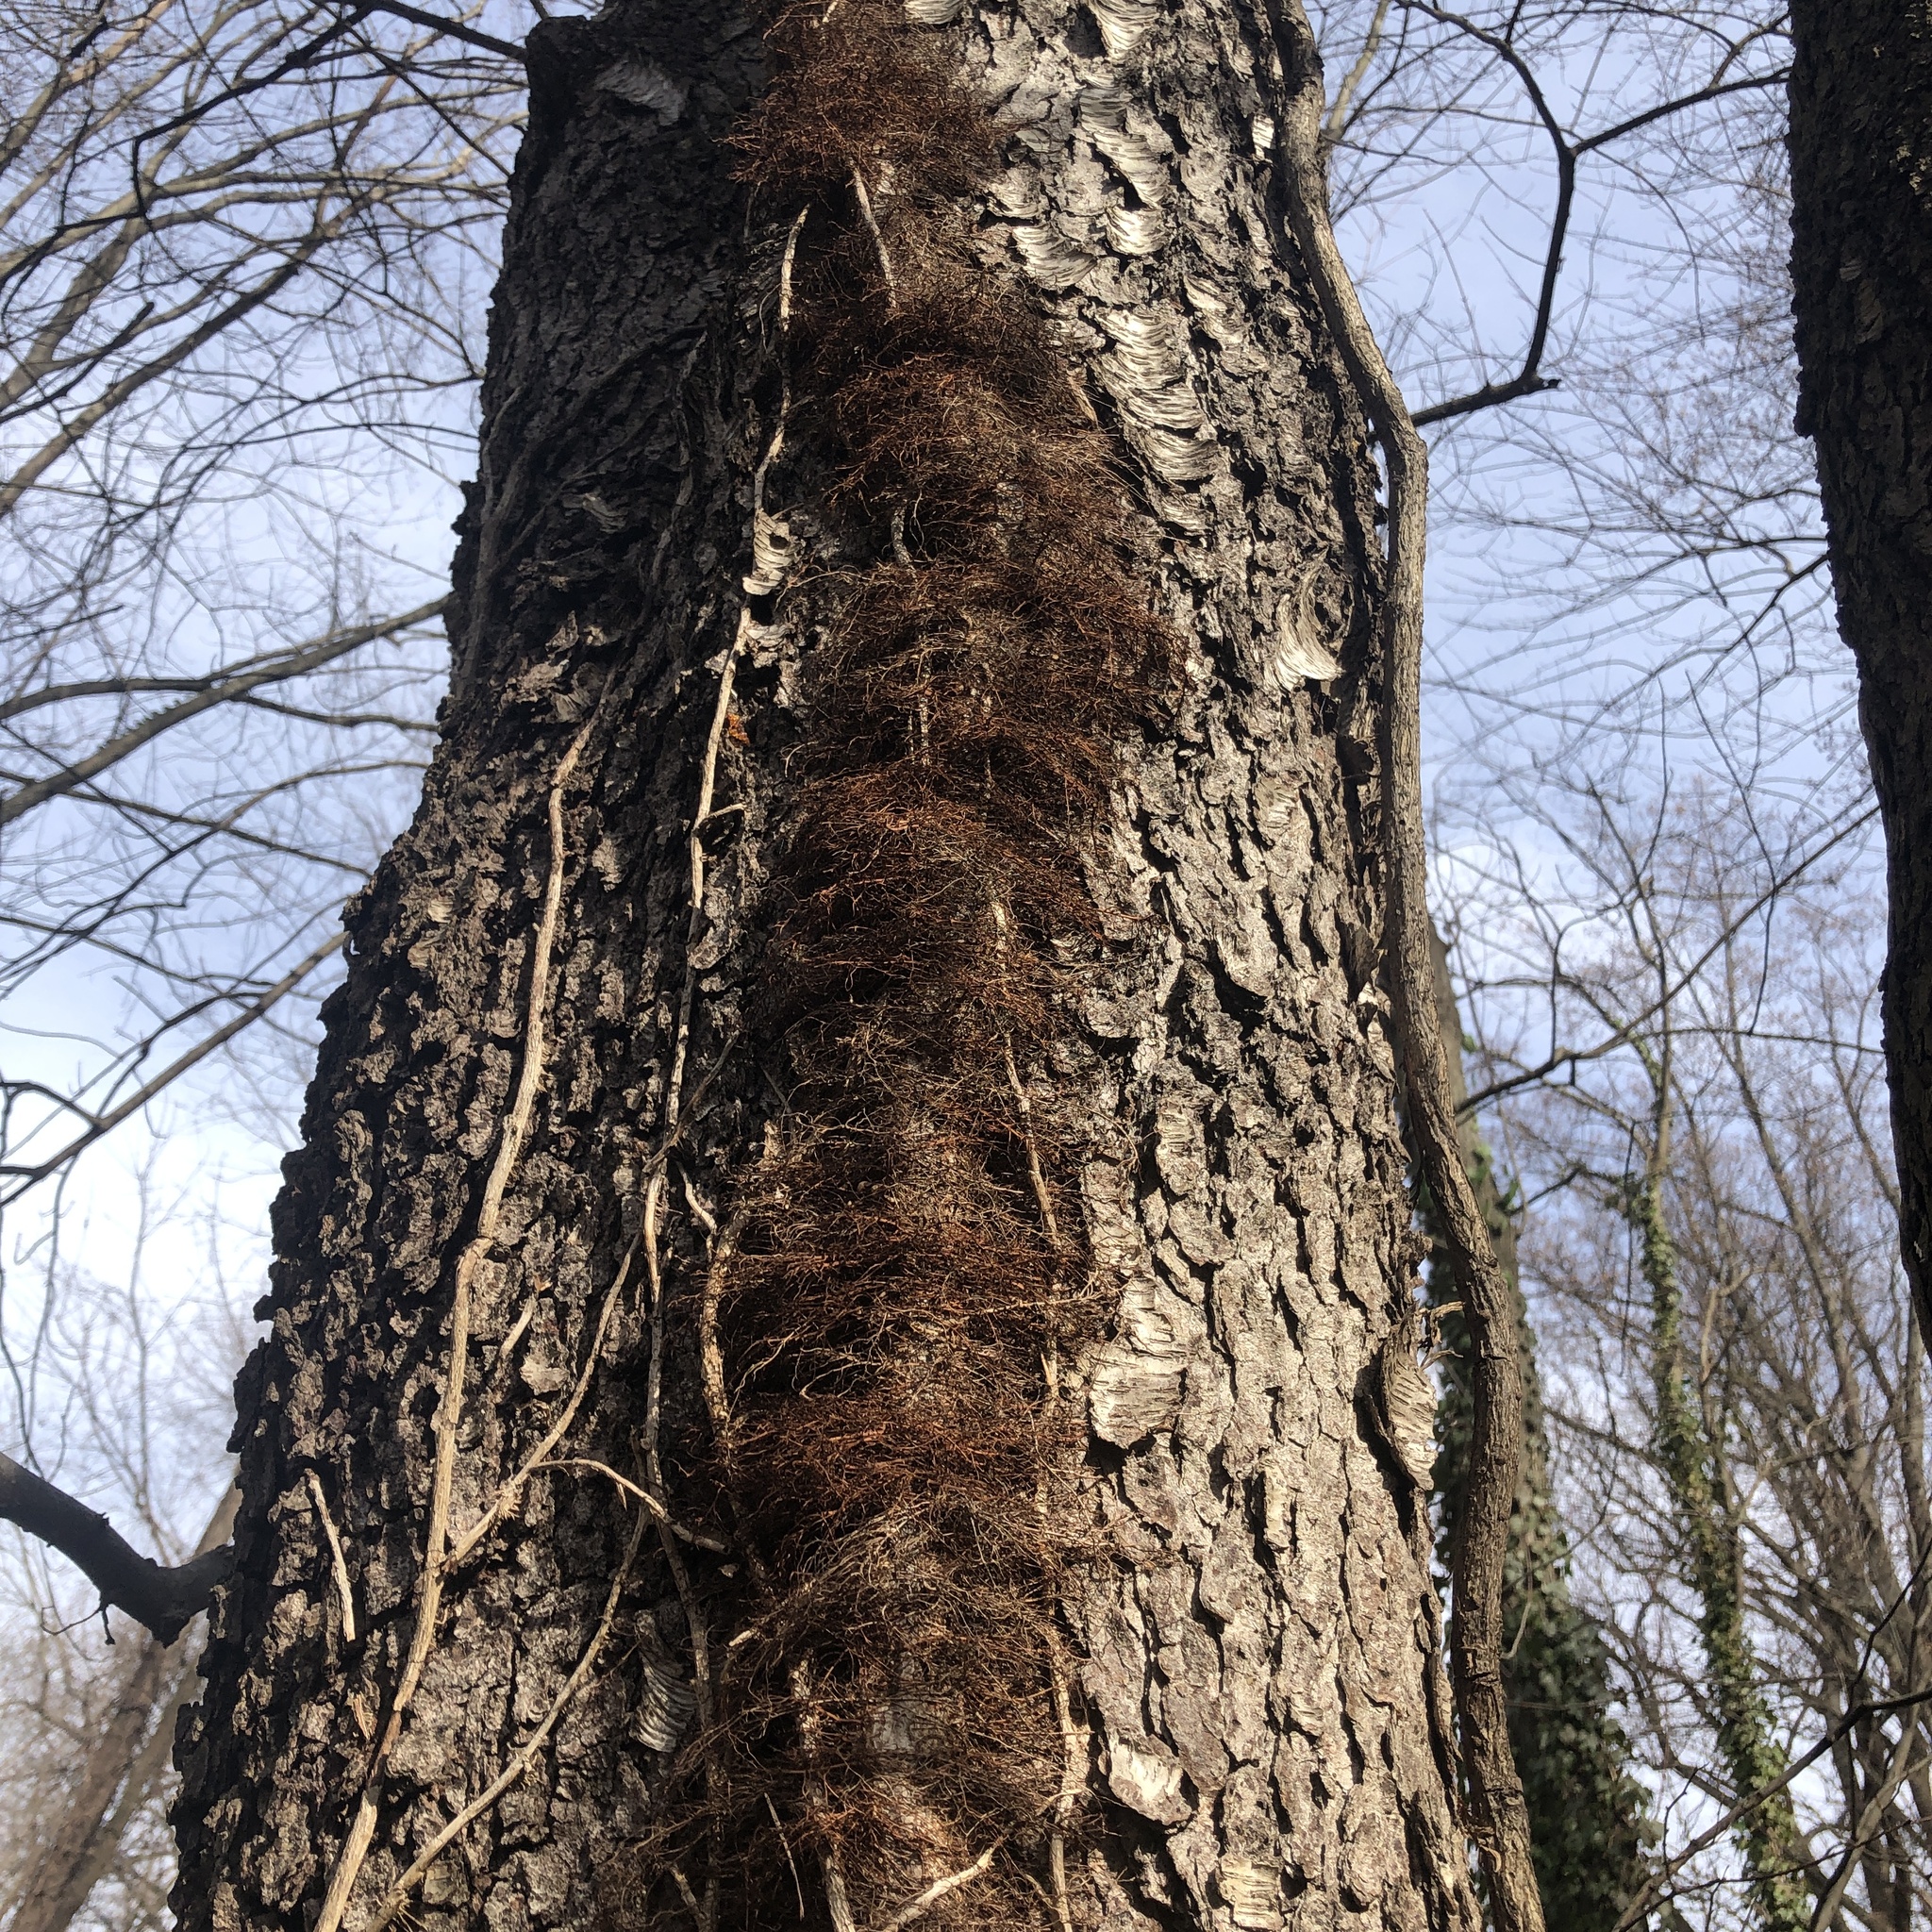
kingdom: Plantae
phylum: Tracheophyta
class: Magnoliopsida
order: Sapindales
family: Anacardiaceae
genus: Toxicodendron
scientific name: Toxicodendron radicans
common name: Poison ivy
